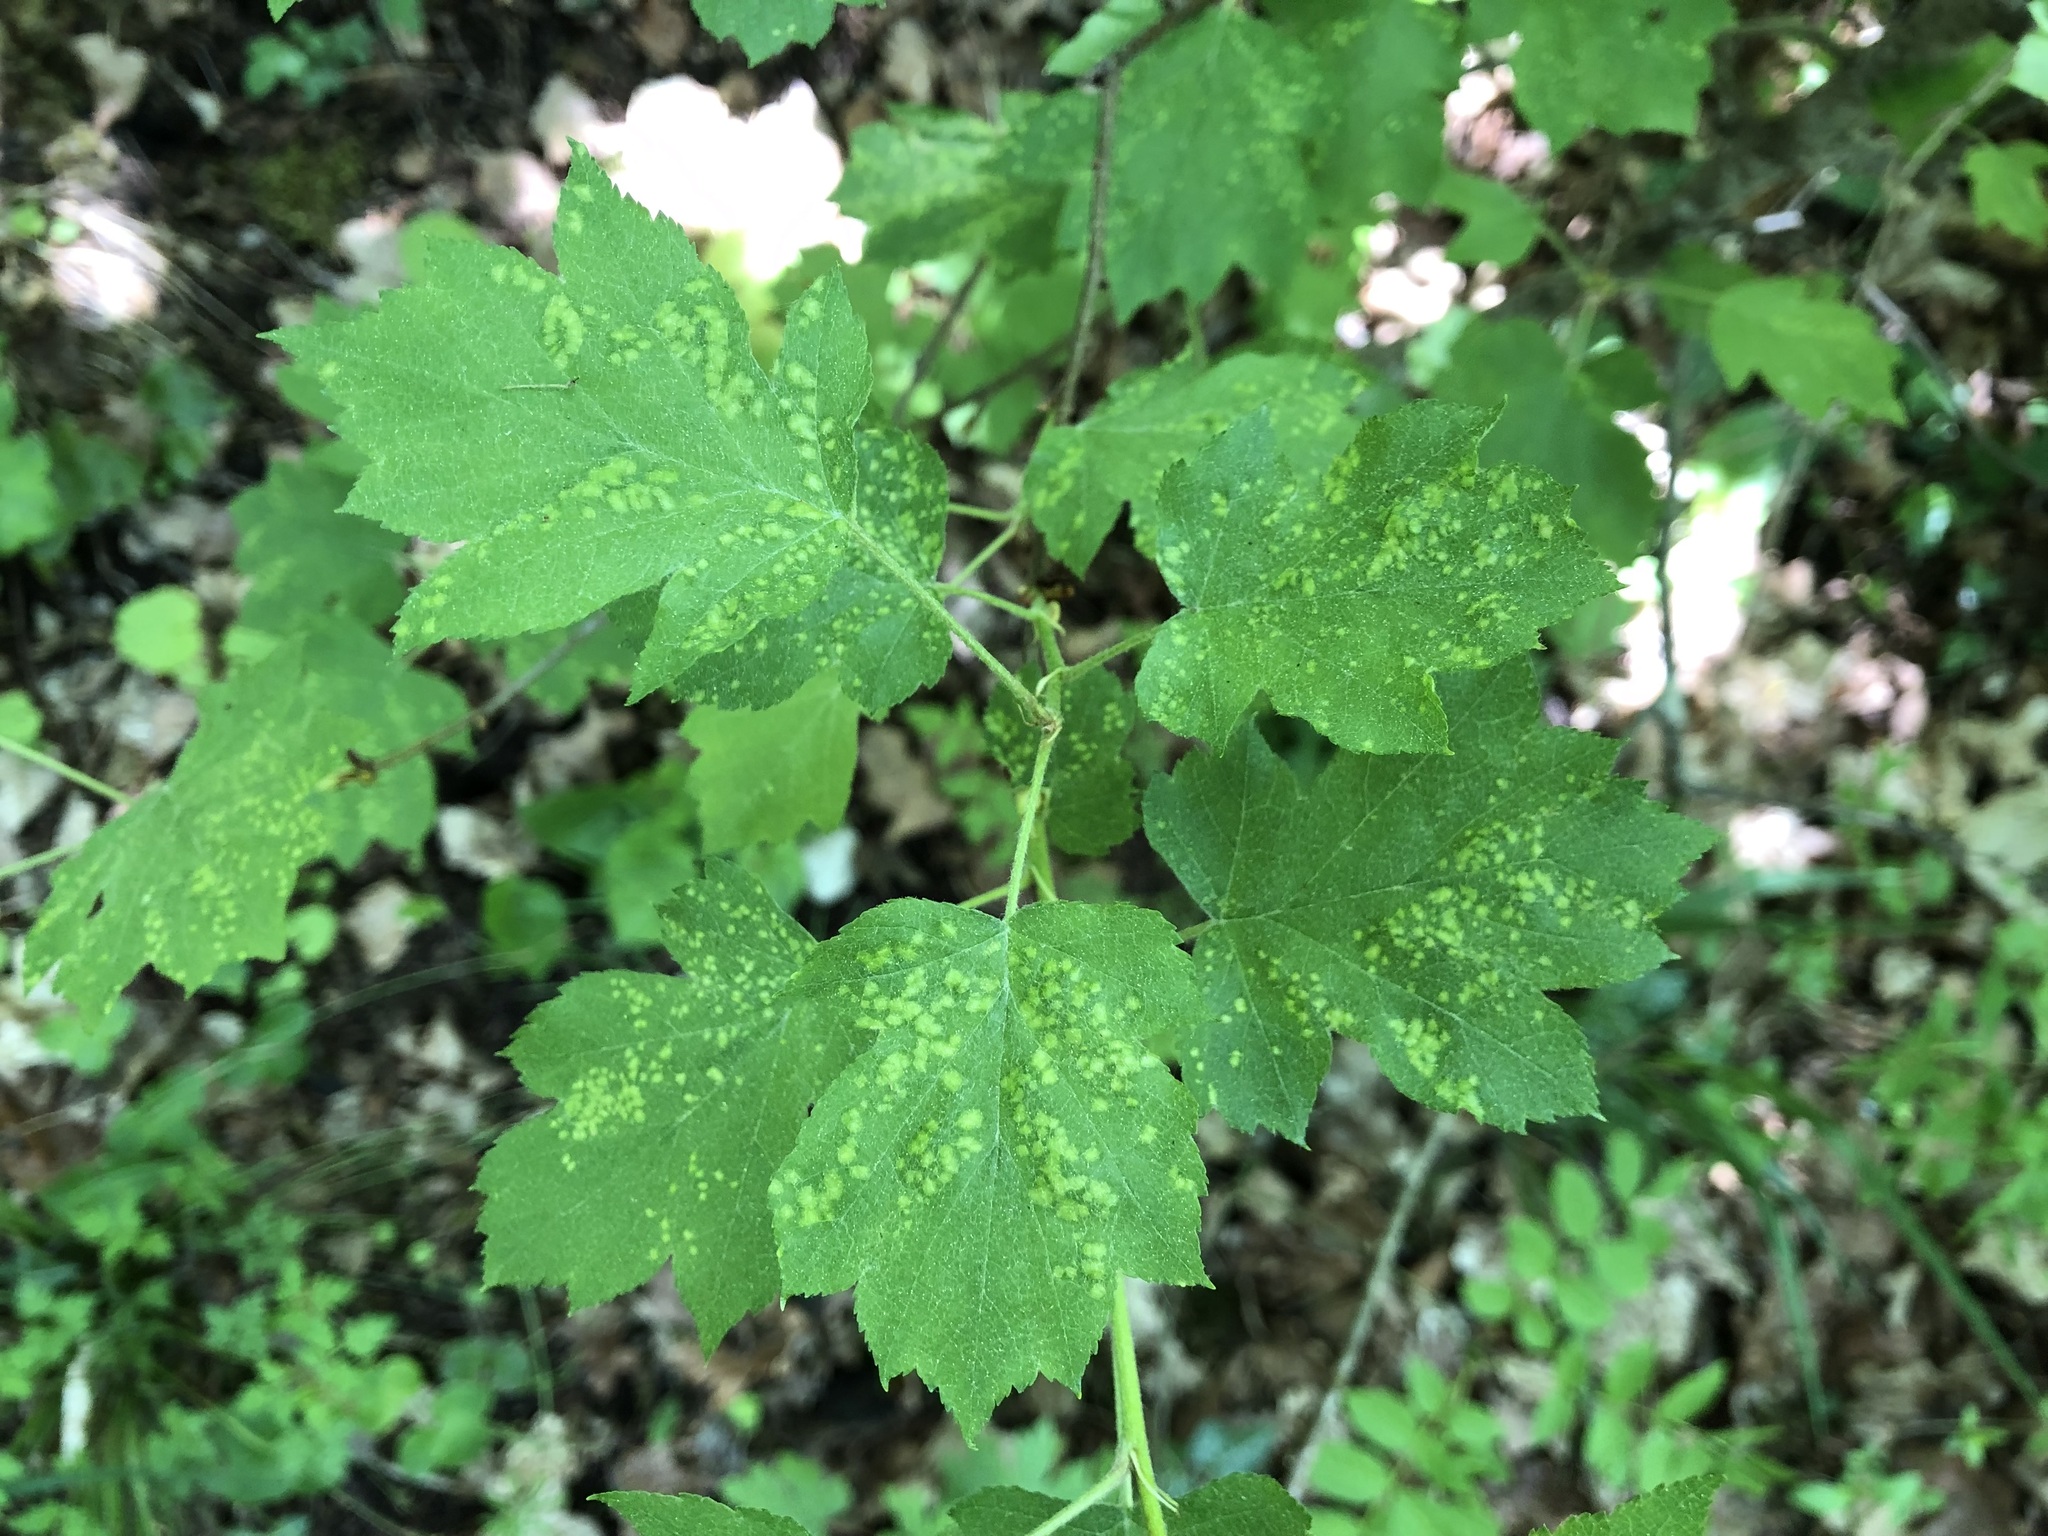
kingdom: Plantae
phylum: Tracheophyta
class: Magnoliopsida
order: Rosales
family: Rosaceae
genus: Torminalis
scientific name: Torminalis glaberrima
